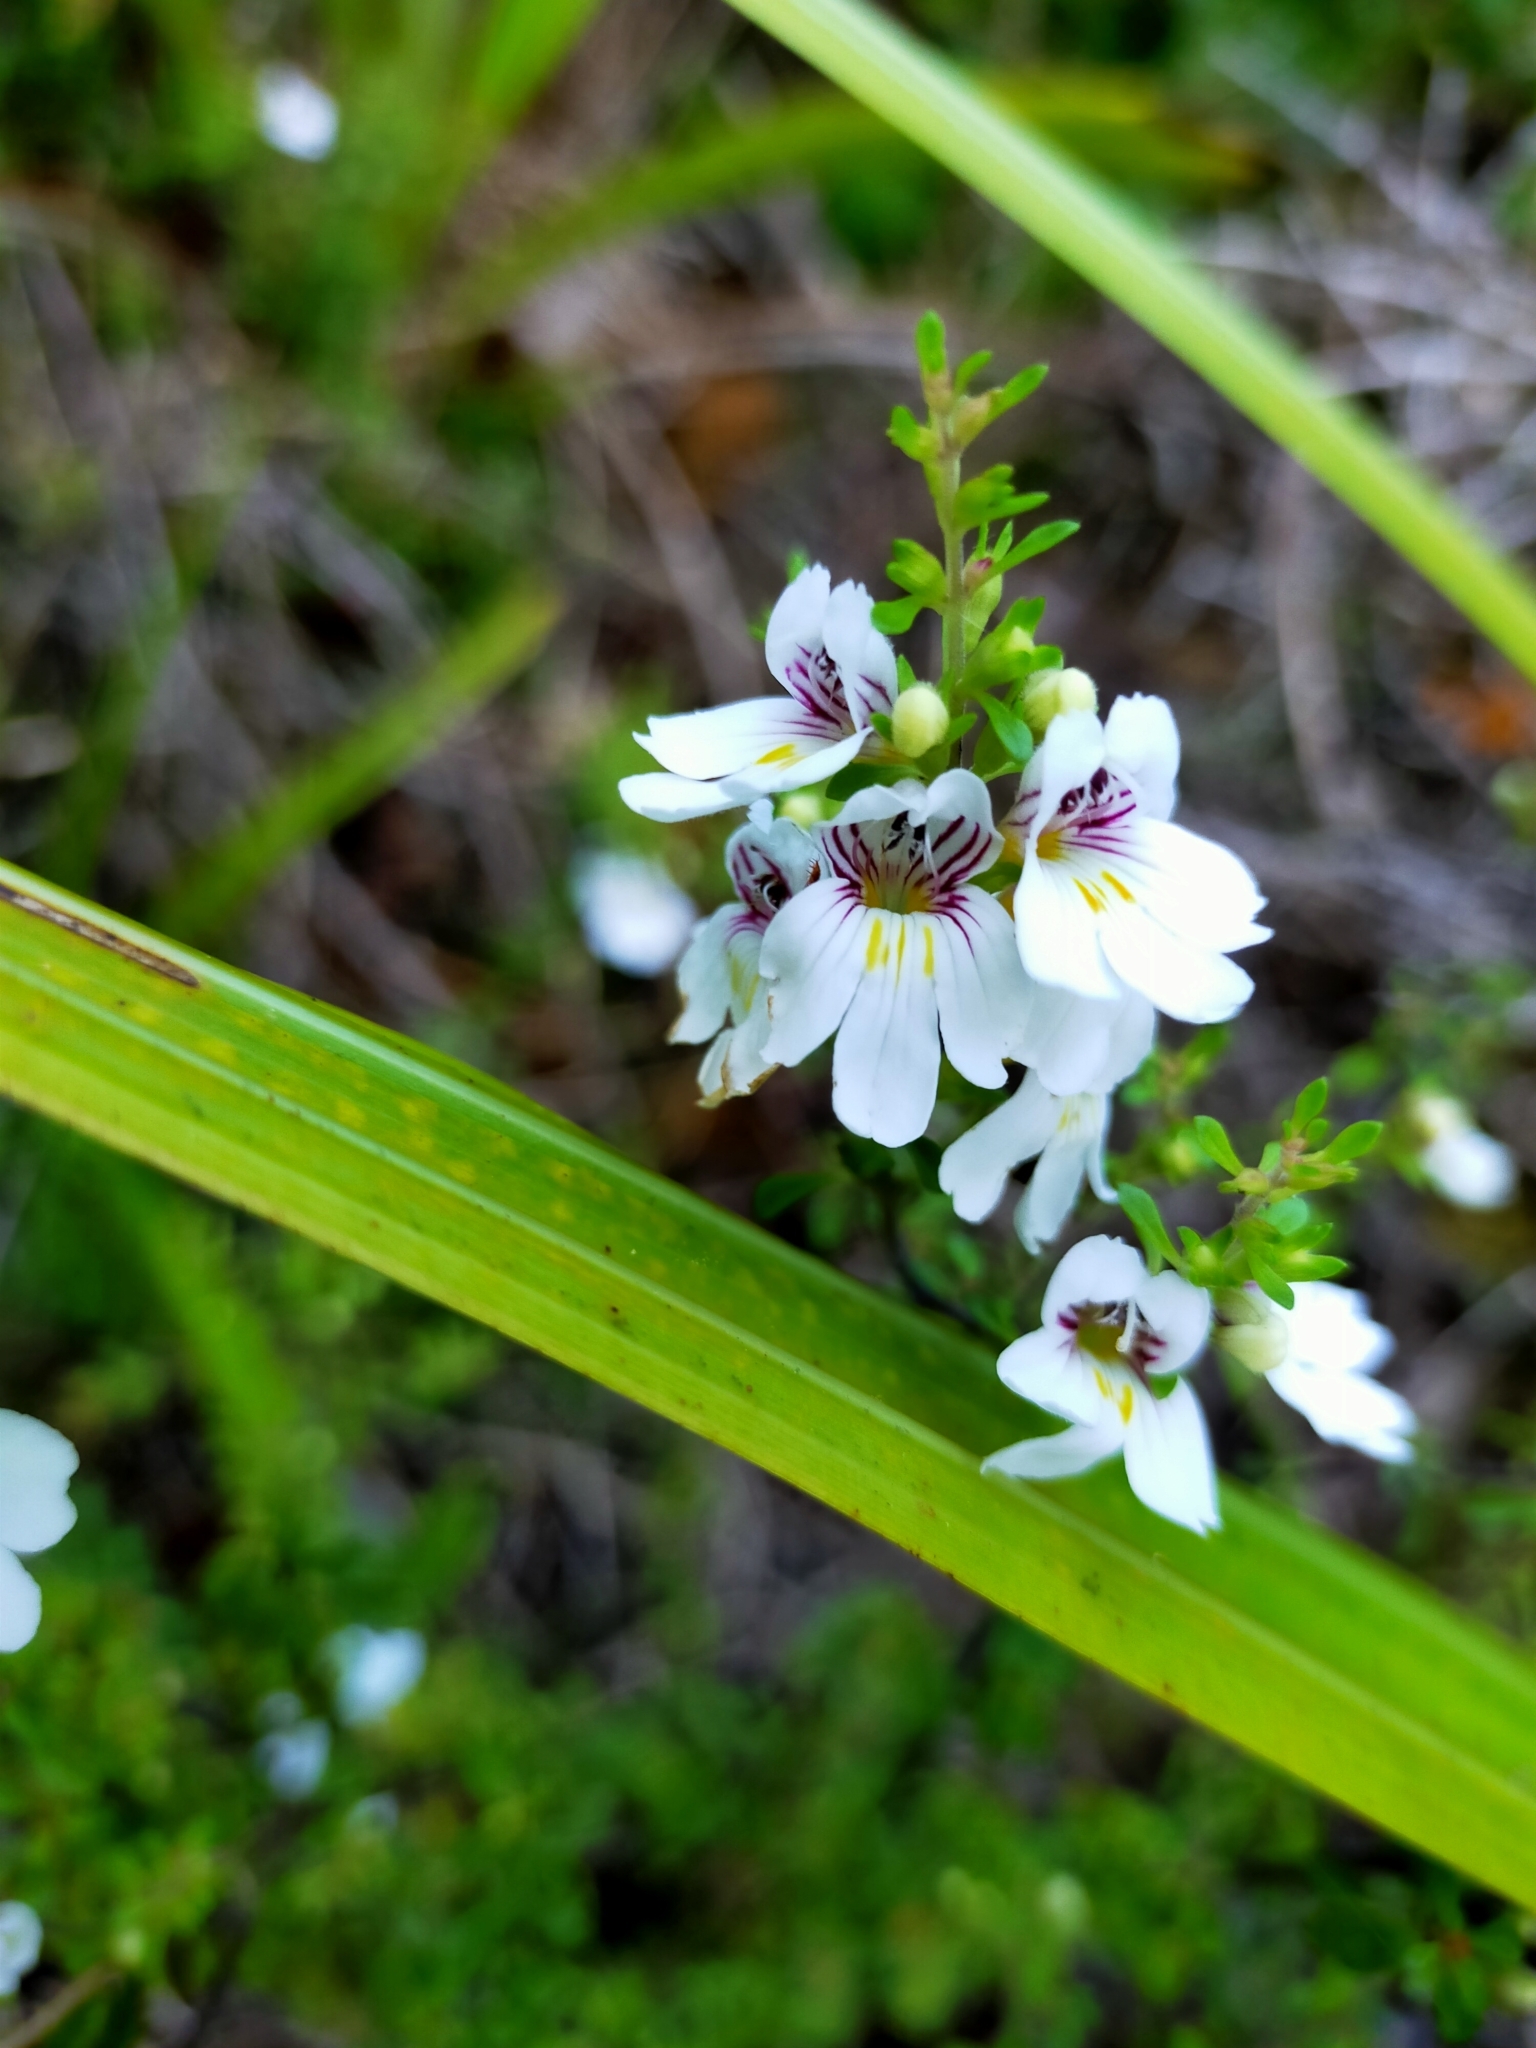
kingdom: Plantae
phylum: Tracheophyta
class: Magnoliopsida
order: Lamiales
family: Orobanchaceae
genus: Euphrasia
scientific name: Euphrasia cuneata
